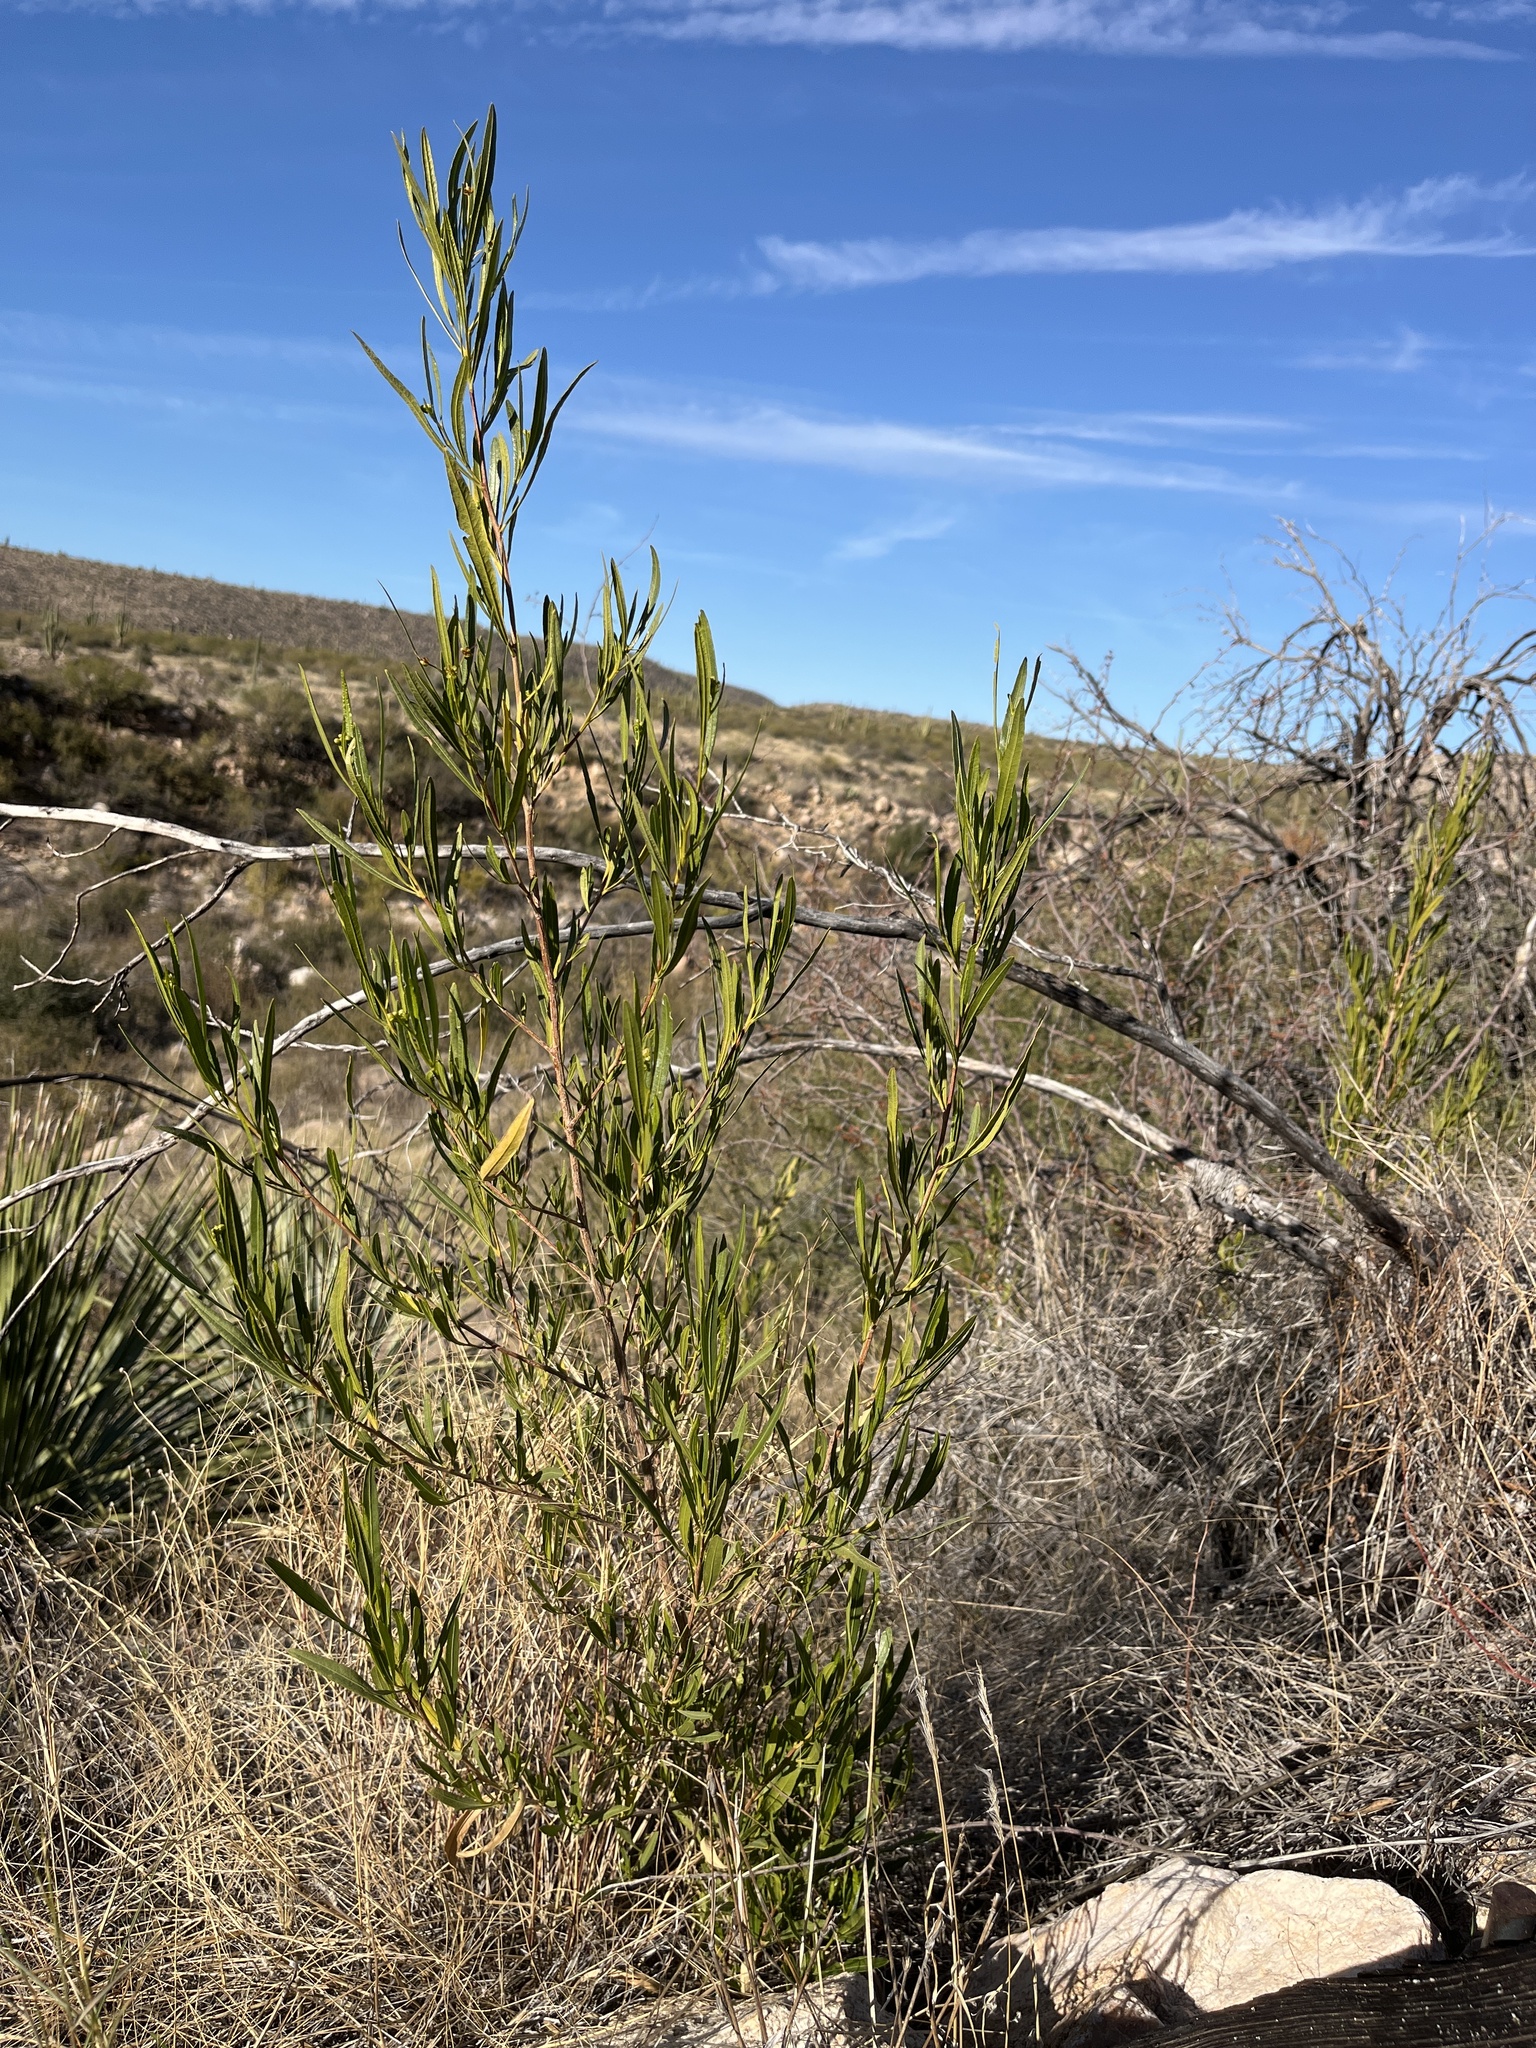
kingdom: Plantae
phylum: Tracheophyta
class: Magnoliopsida
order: Sapindales
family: Sapindaceae
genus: Dodonaea
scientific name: Dodonaea viscosa
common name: Hopbush
